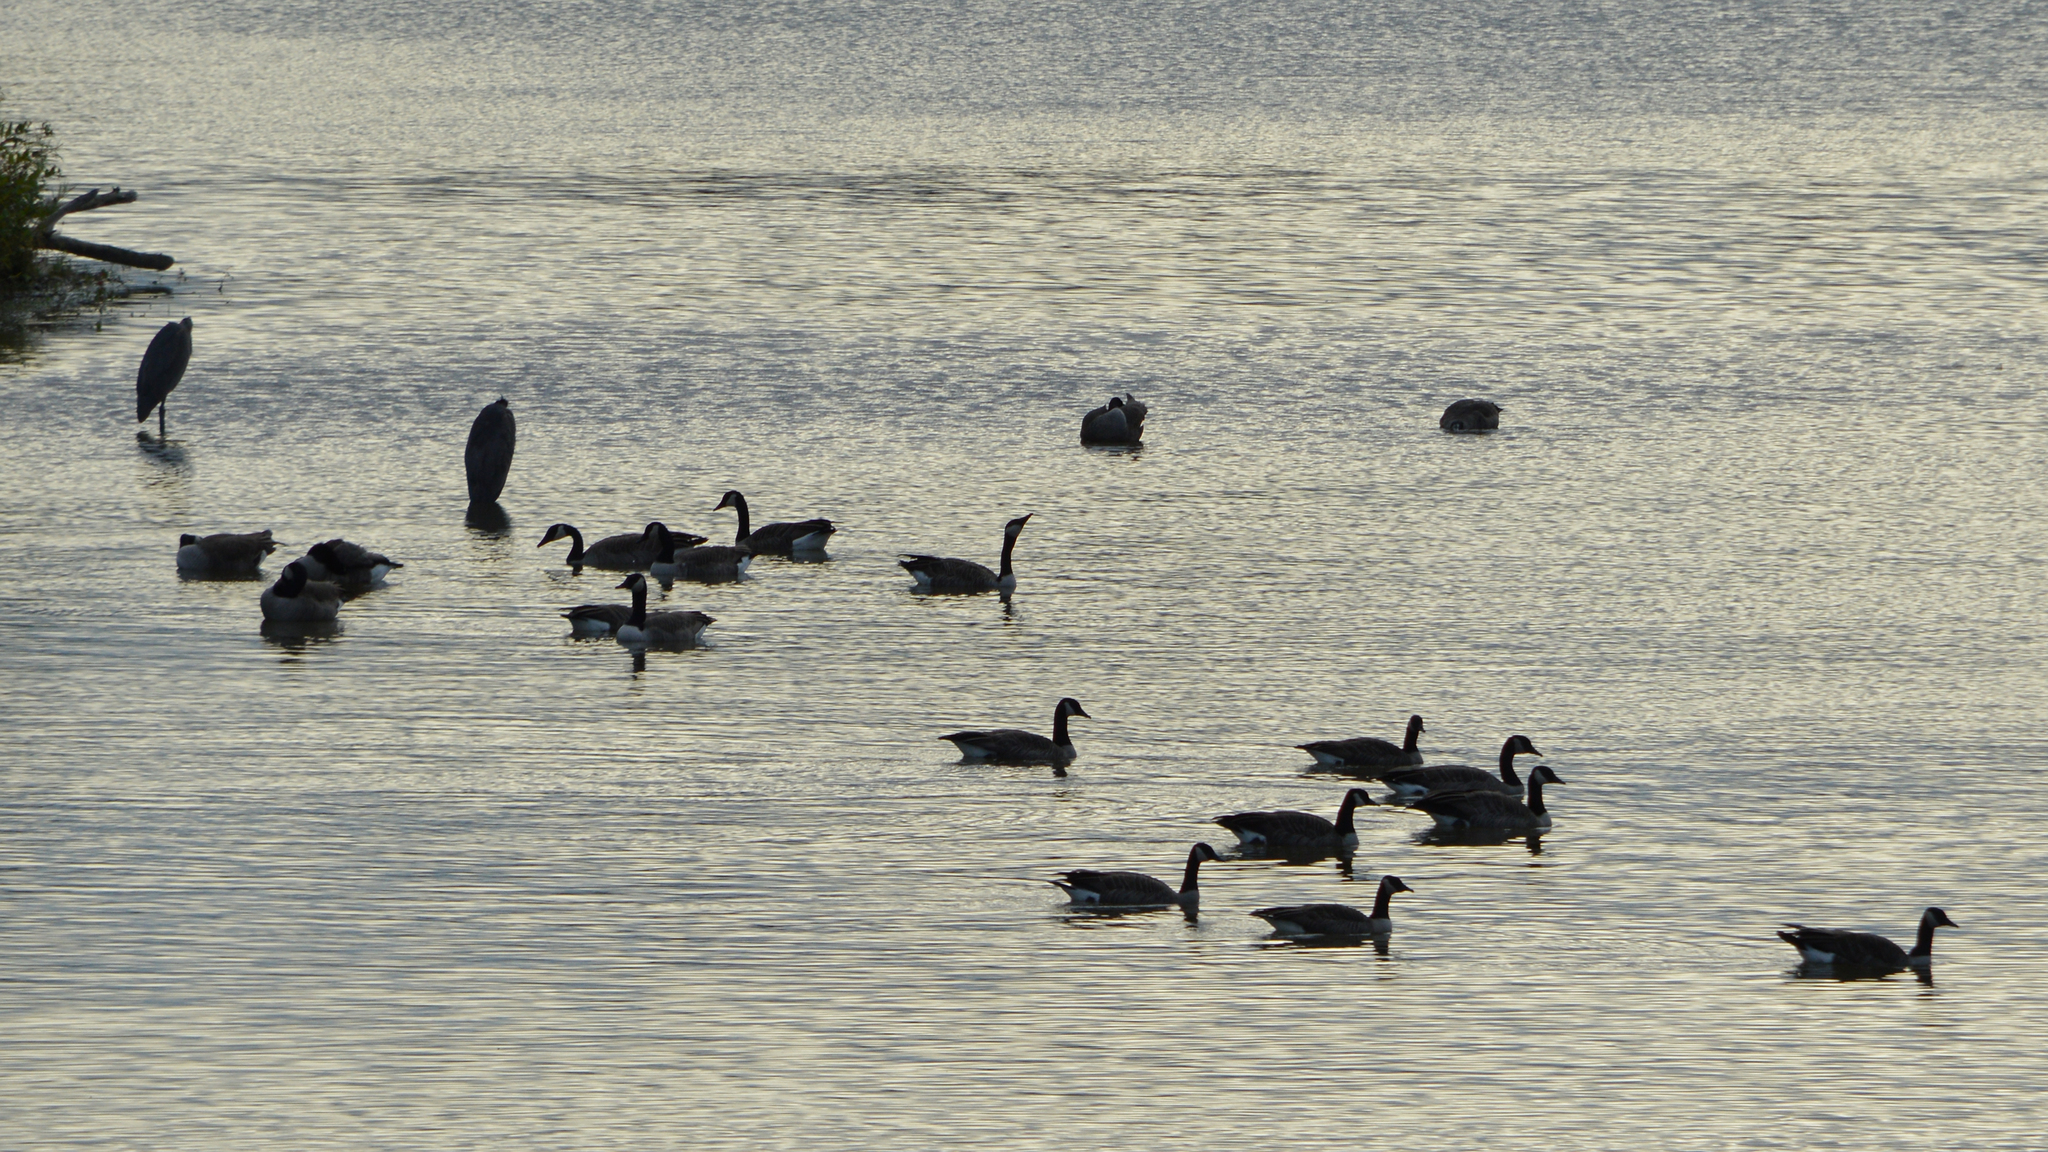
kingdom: Animalia
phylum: Chordata
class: Aves
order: Anseriformes
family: Anatidae
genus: Branta
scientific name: Branta canadensis
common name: Canada goose
